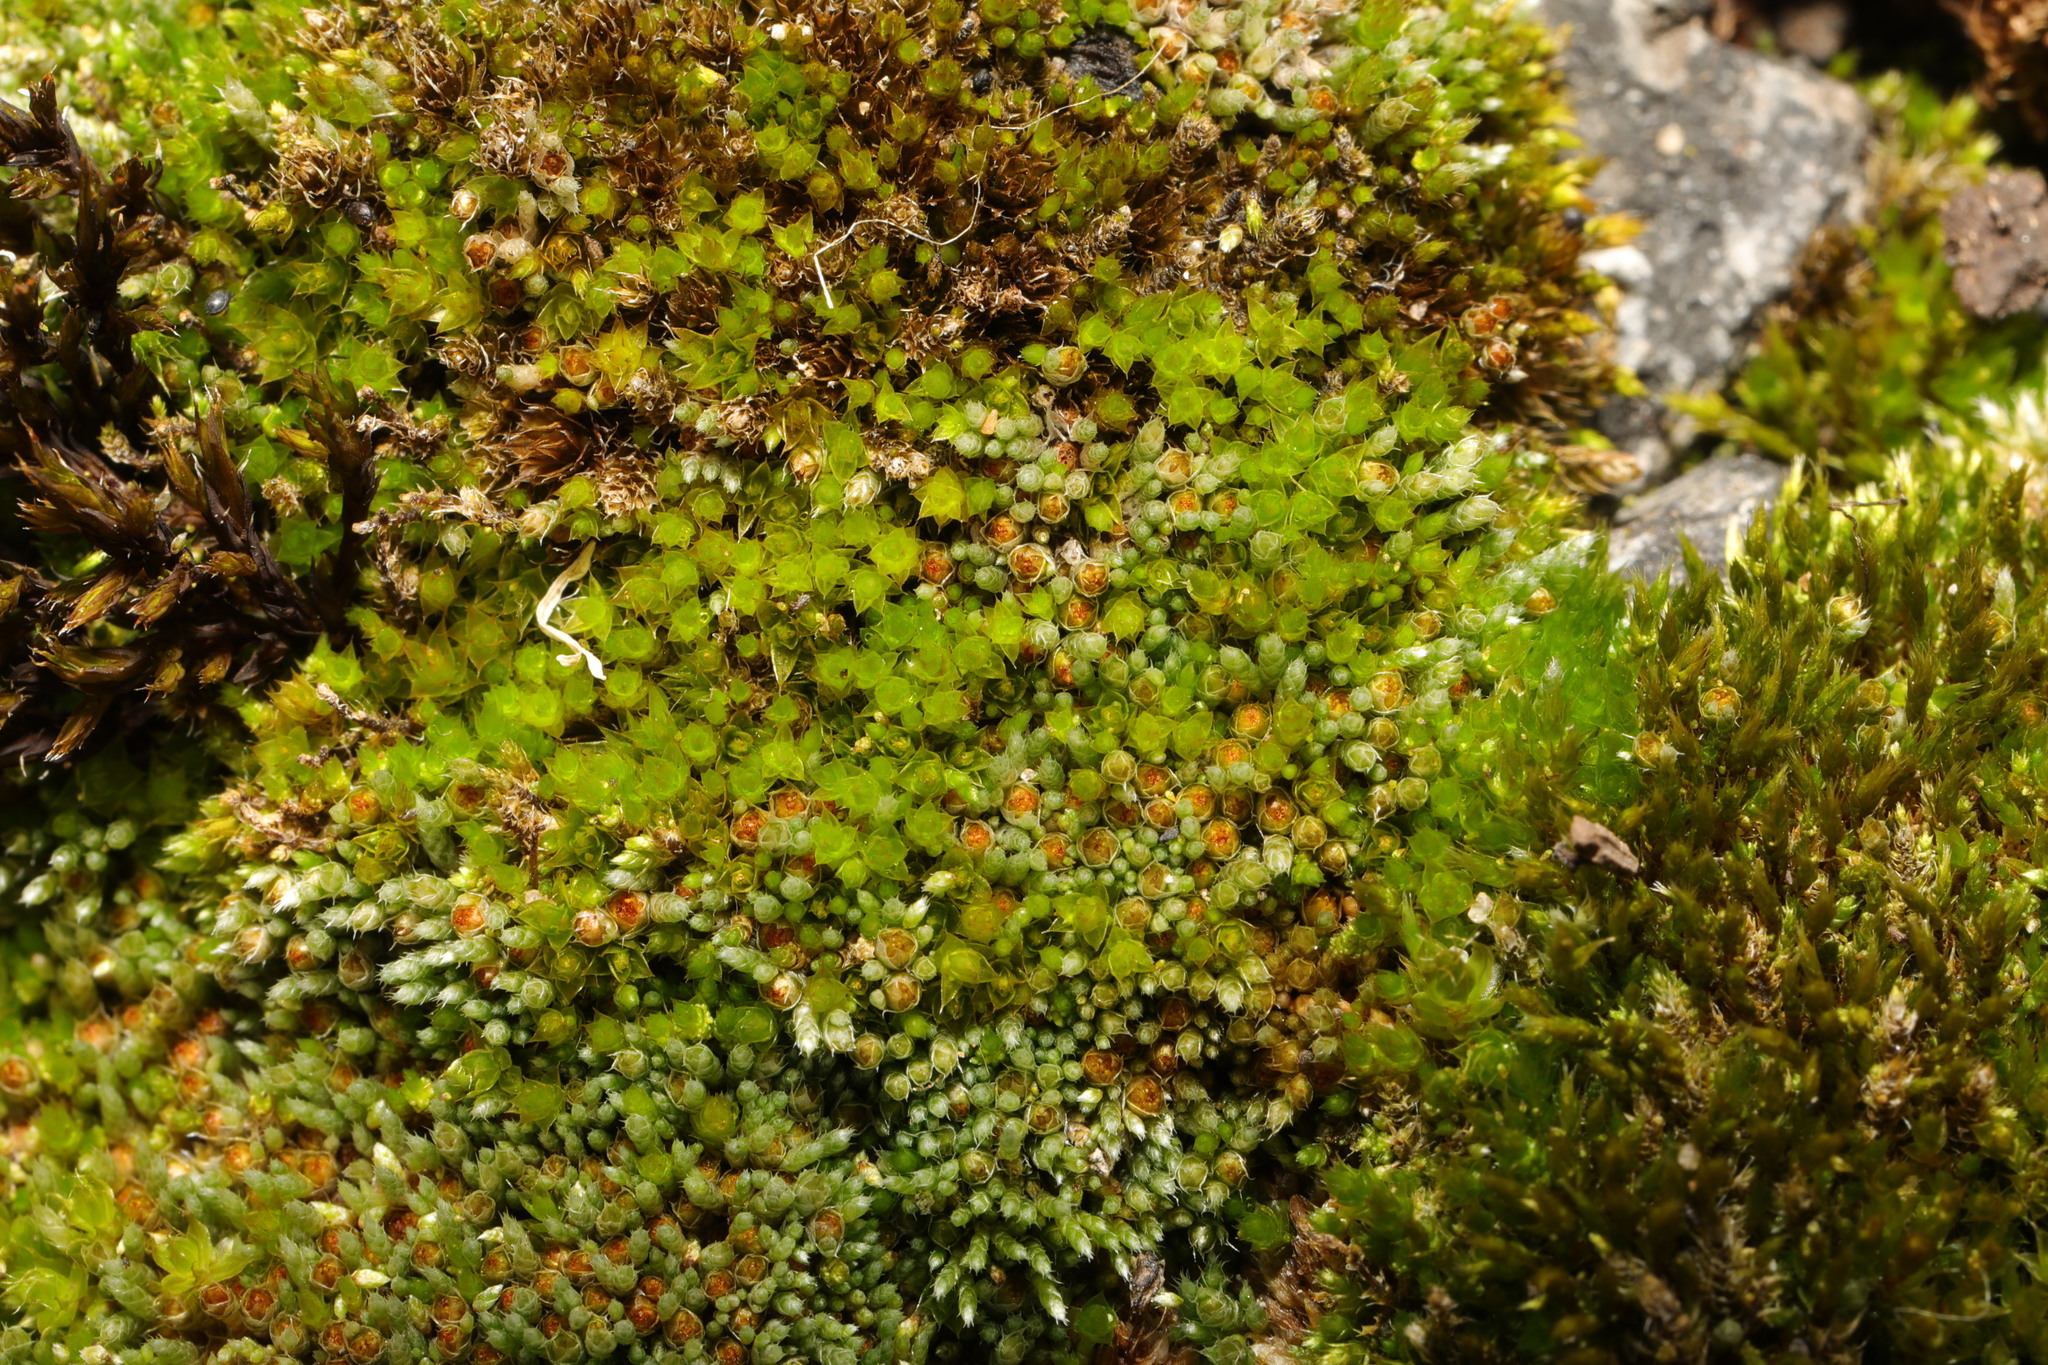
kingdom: Plantae
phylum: Bryophyta
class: Bryopsida
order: Bryales
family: Bryaceae
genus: Bryum
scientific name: Bryum argenteum
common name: Silver-moss
